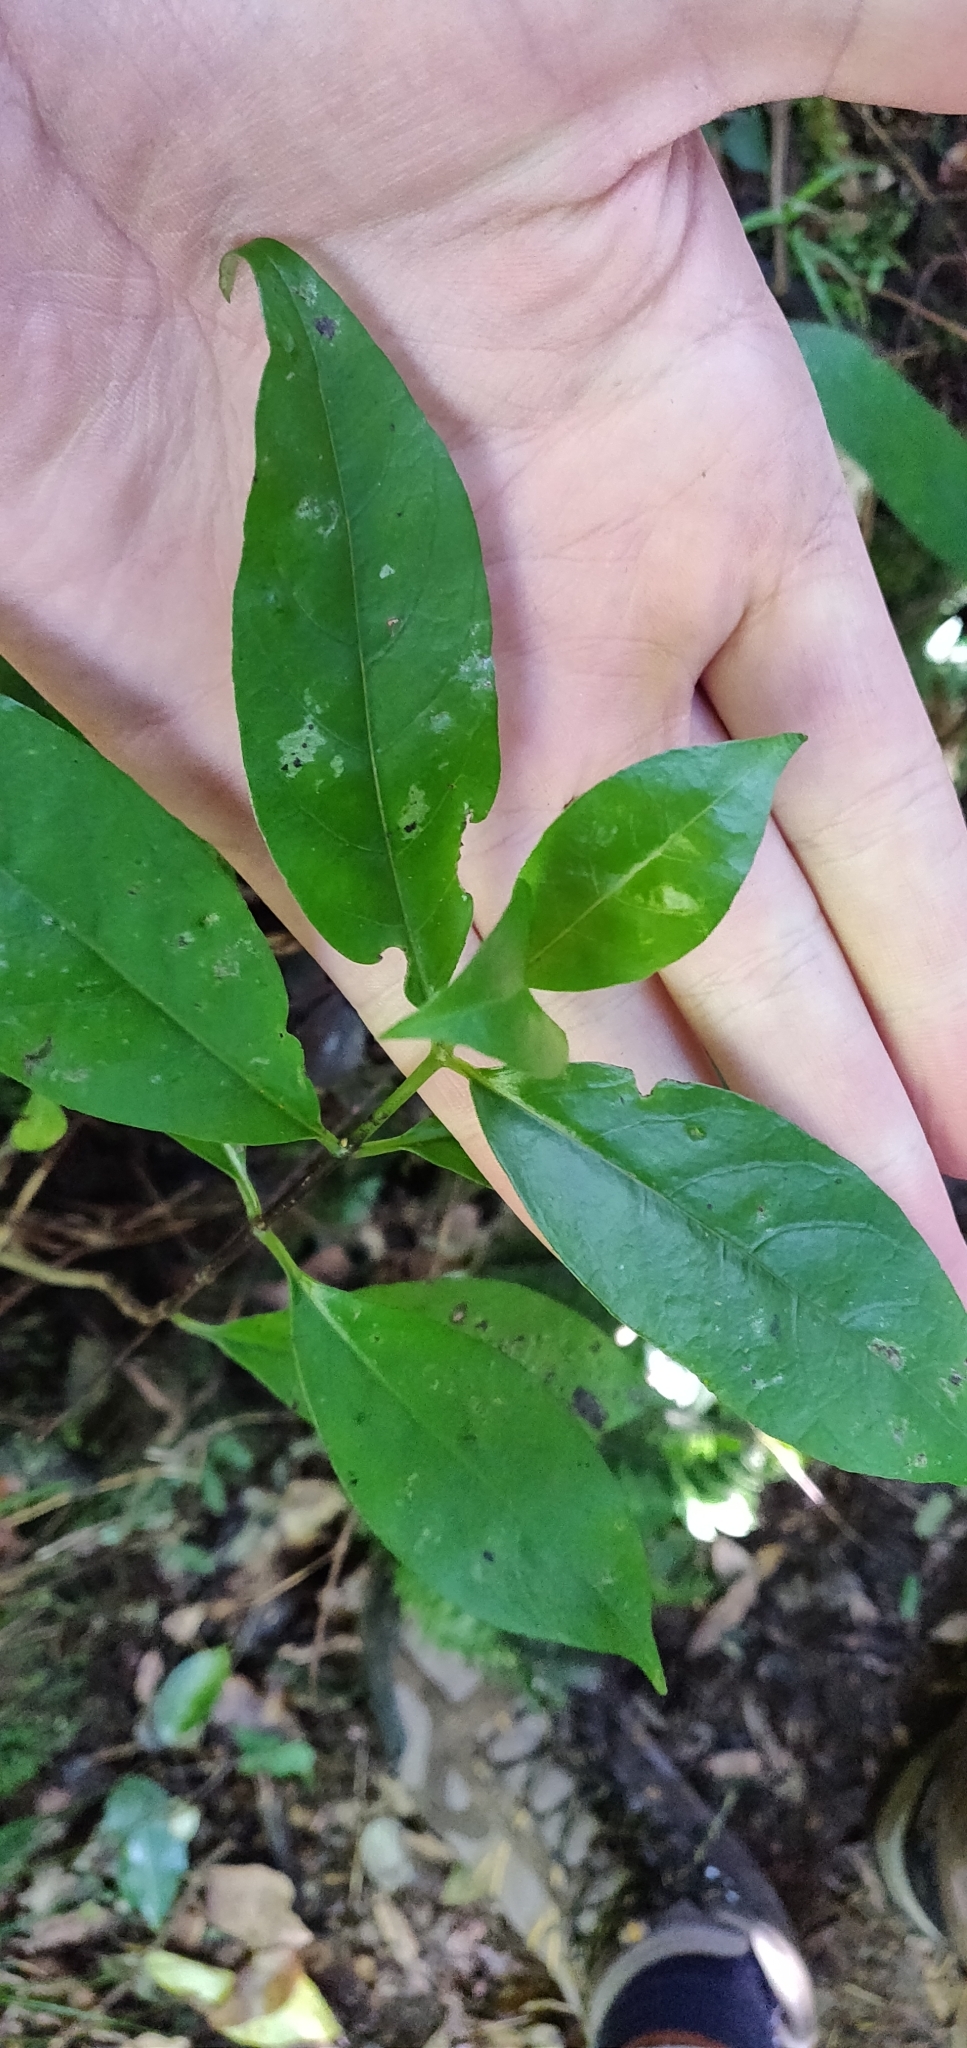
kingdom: Plantae
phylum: Tracheophyta
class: Magnoliopsida
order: Gentianales
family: Loganiaceae
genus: Geniostoma
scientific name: Geniostoma ligustrifolium
